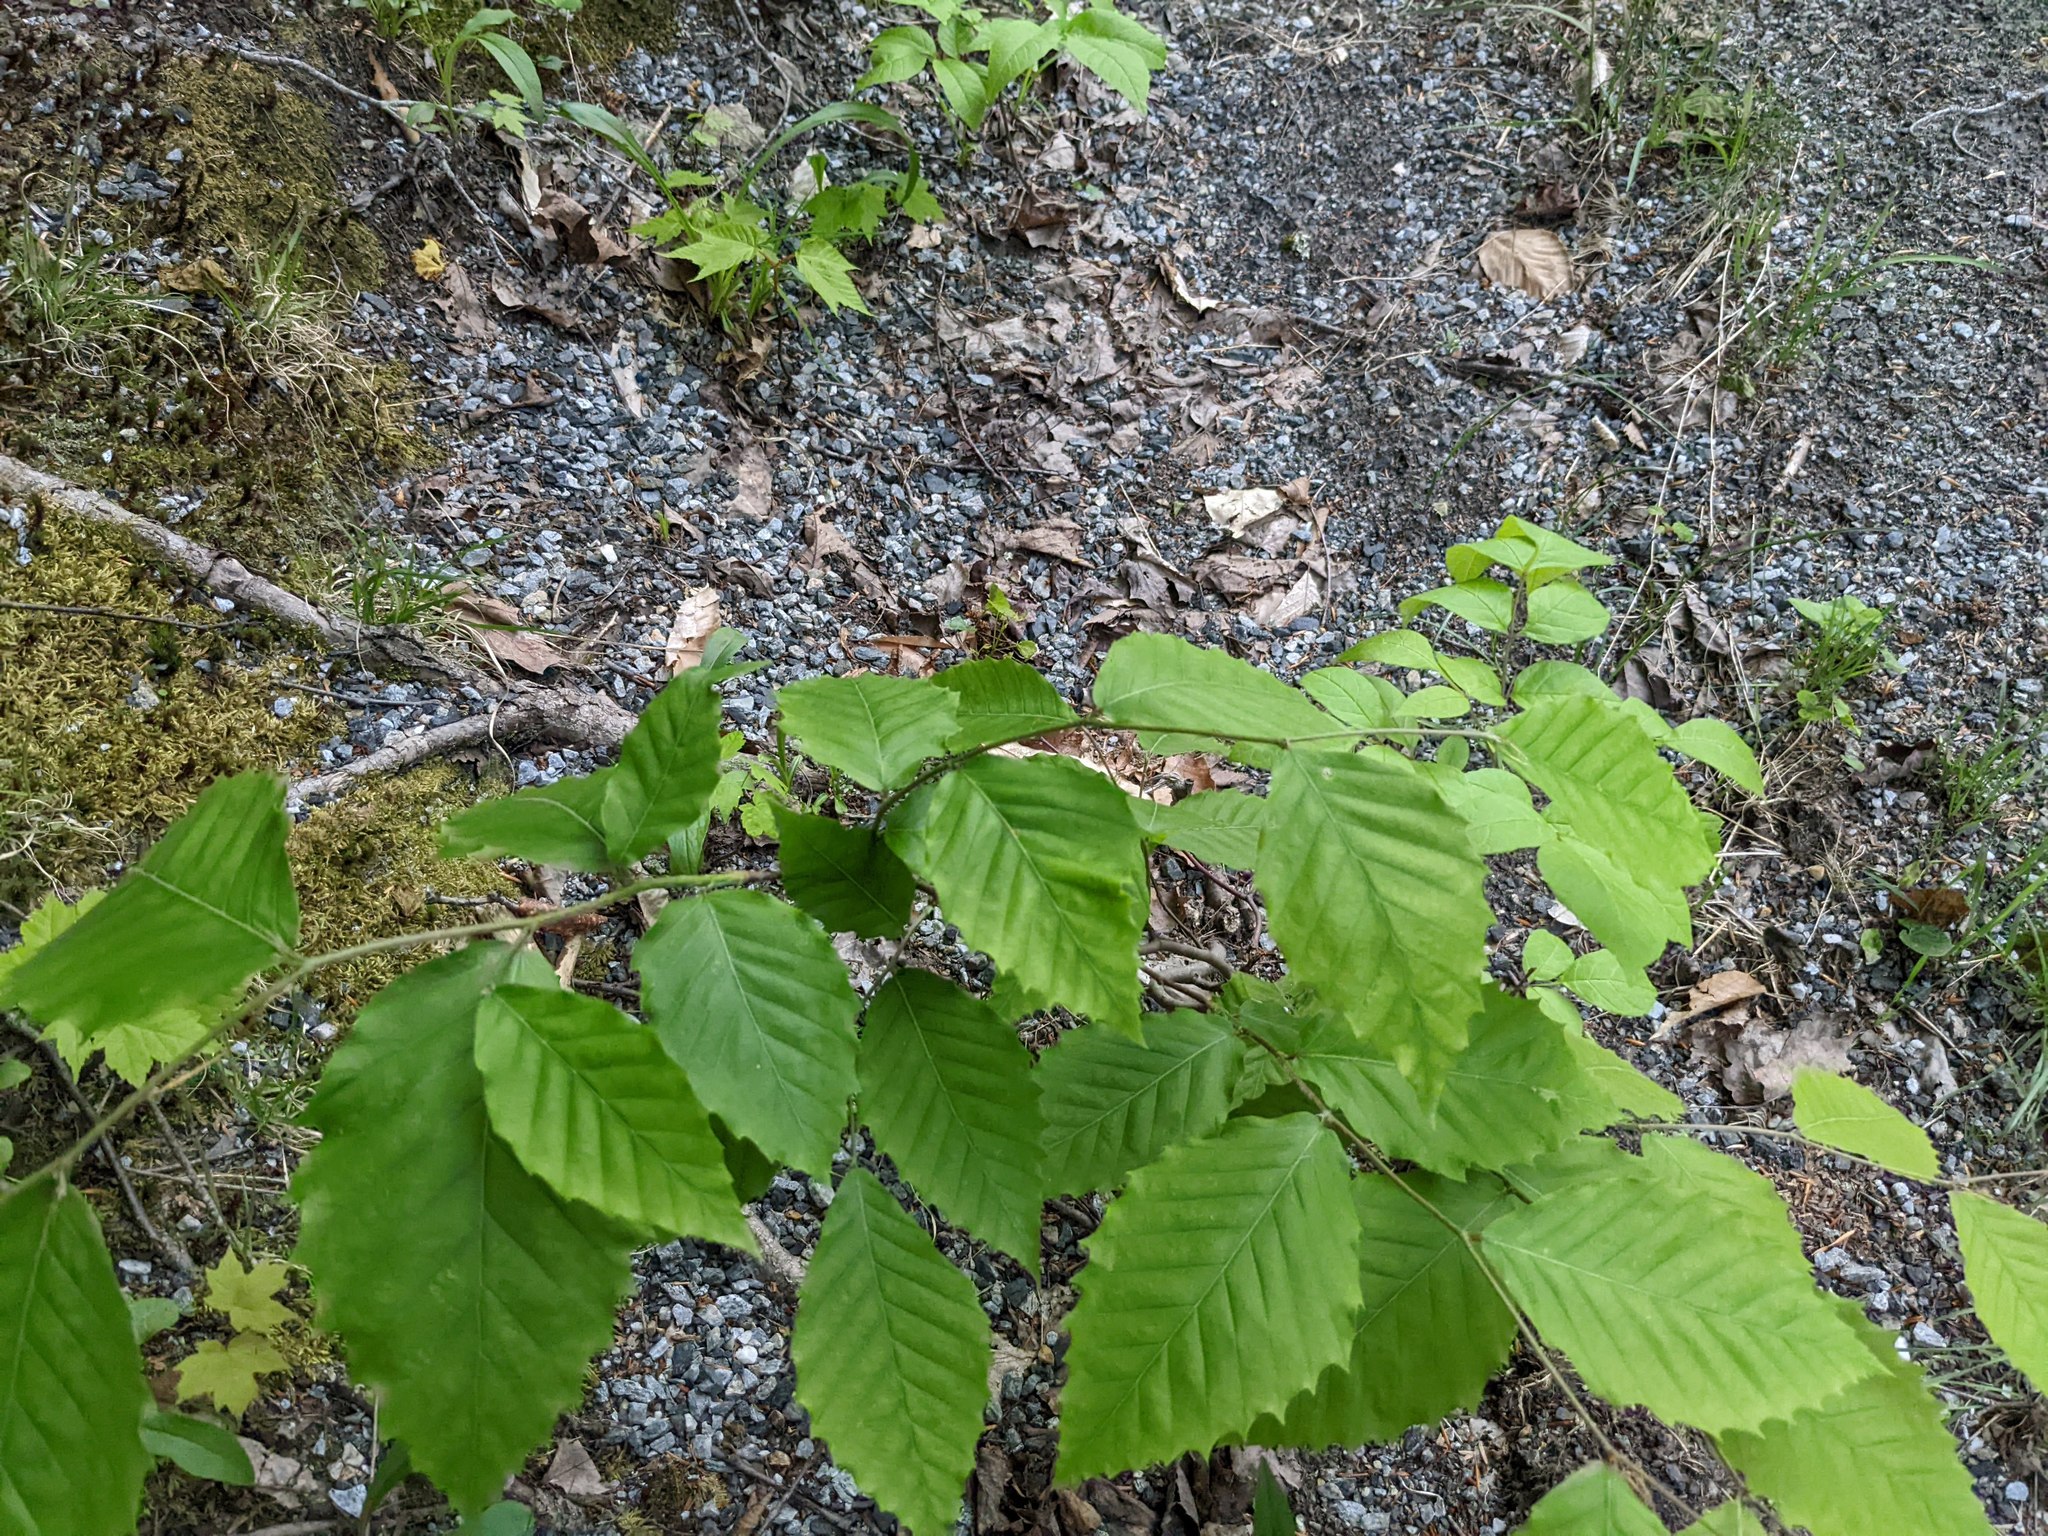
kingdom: Plantae
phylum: Tracheophyta
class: Magnoliopsida
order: Fagales
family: Fagaceae
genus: Fagus
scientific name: Fagus grandifolia
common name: American beech
